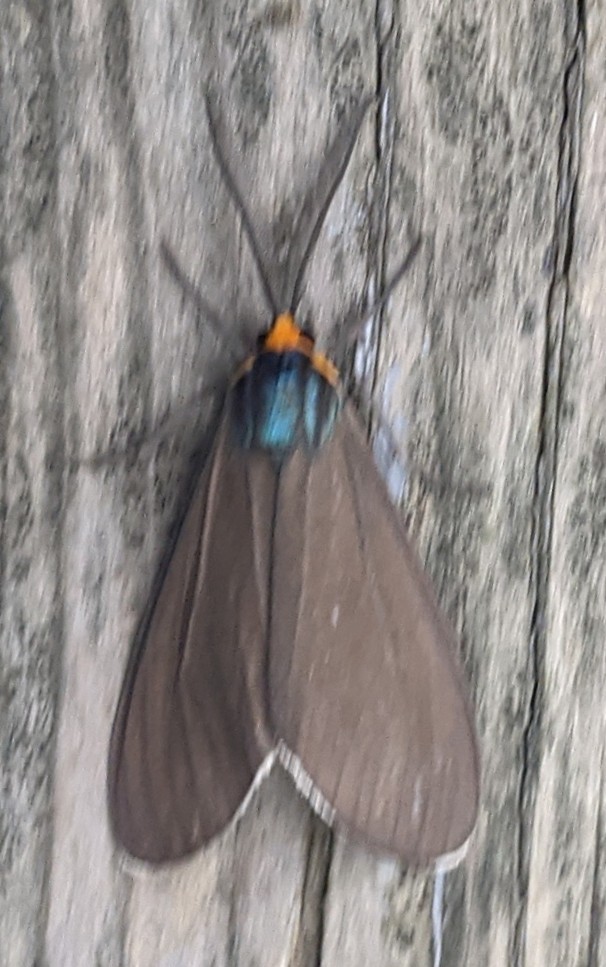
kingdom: Animalia
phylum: Arthropoda
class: Insecta
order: Lepidoptera
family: Erebidae
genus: Ctenucha
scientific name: Ctenucha virginica
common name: Virginia ctenucha moth
